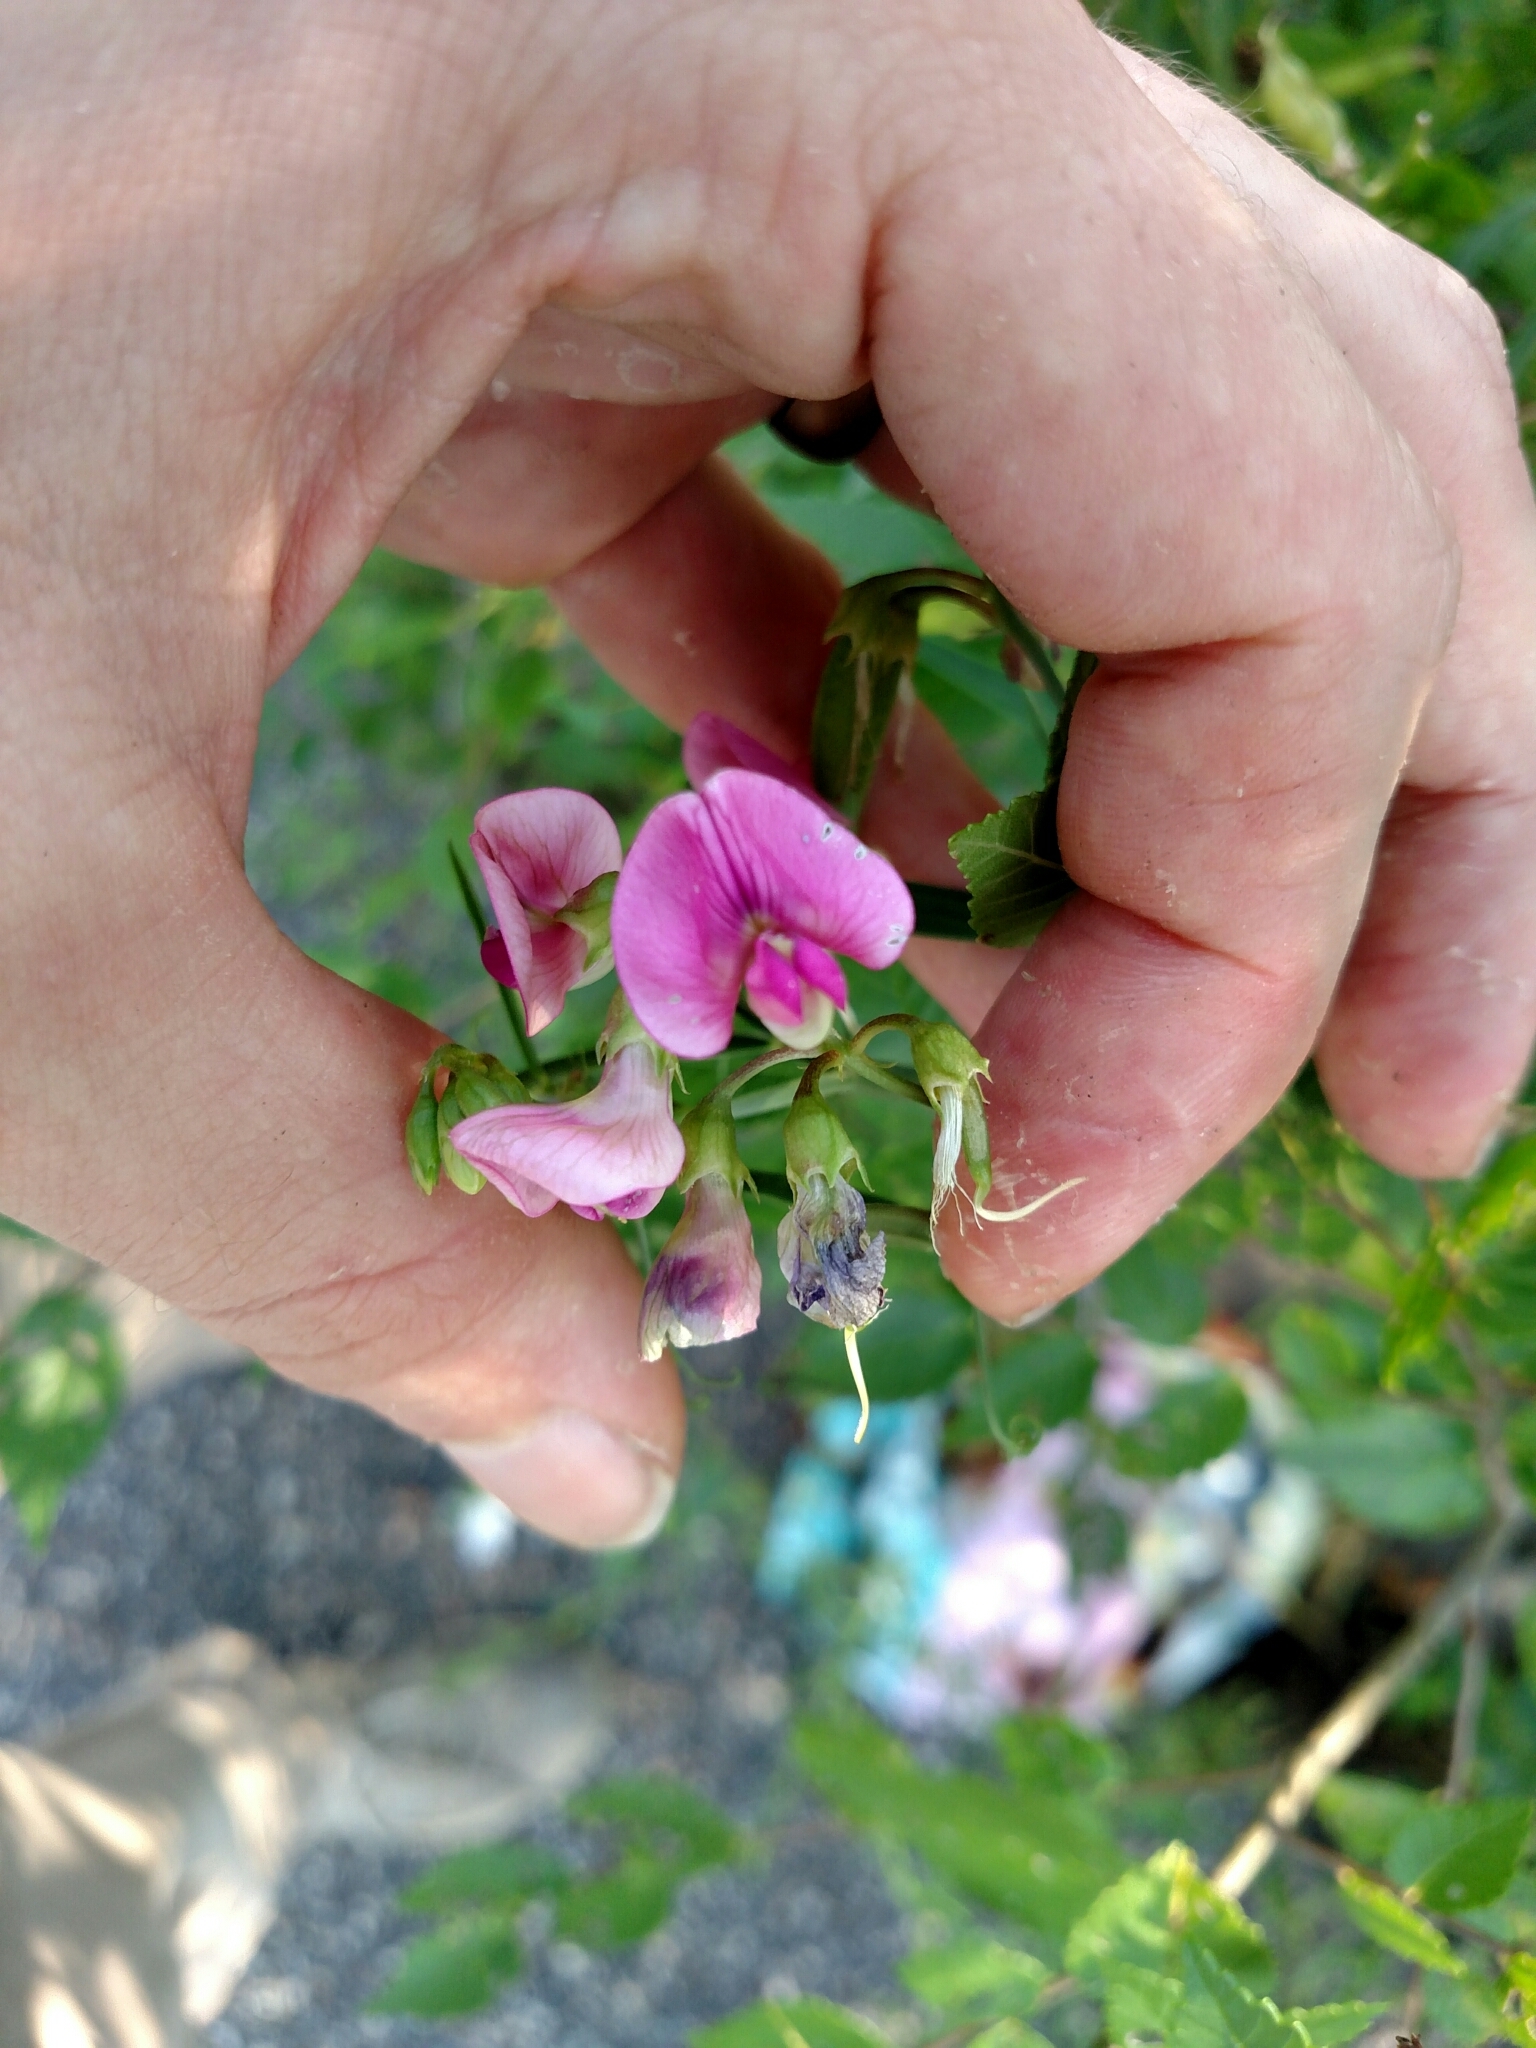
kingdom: Plantae
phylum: Tracheophyta
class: Magnoliopsida
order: Fabales
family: Fabaceae
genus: Lathyrus
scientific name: Lathyrus sylvestris
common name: Flat pea
